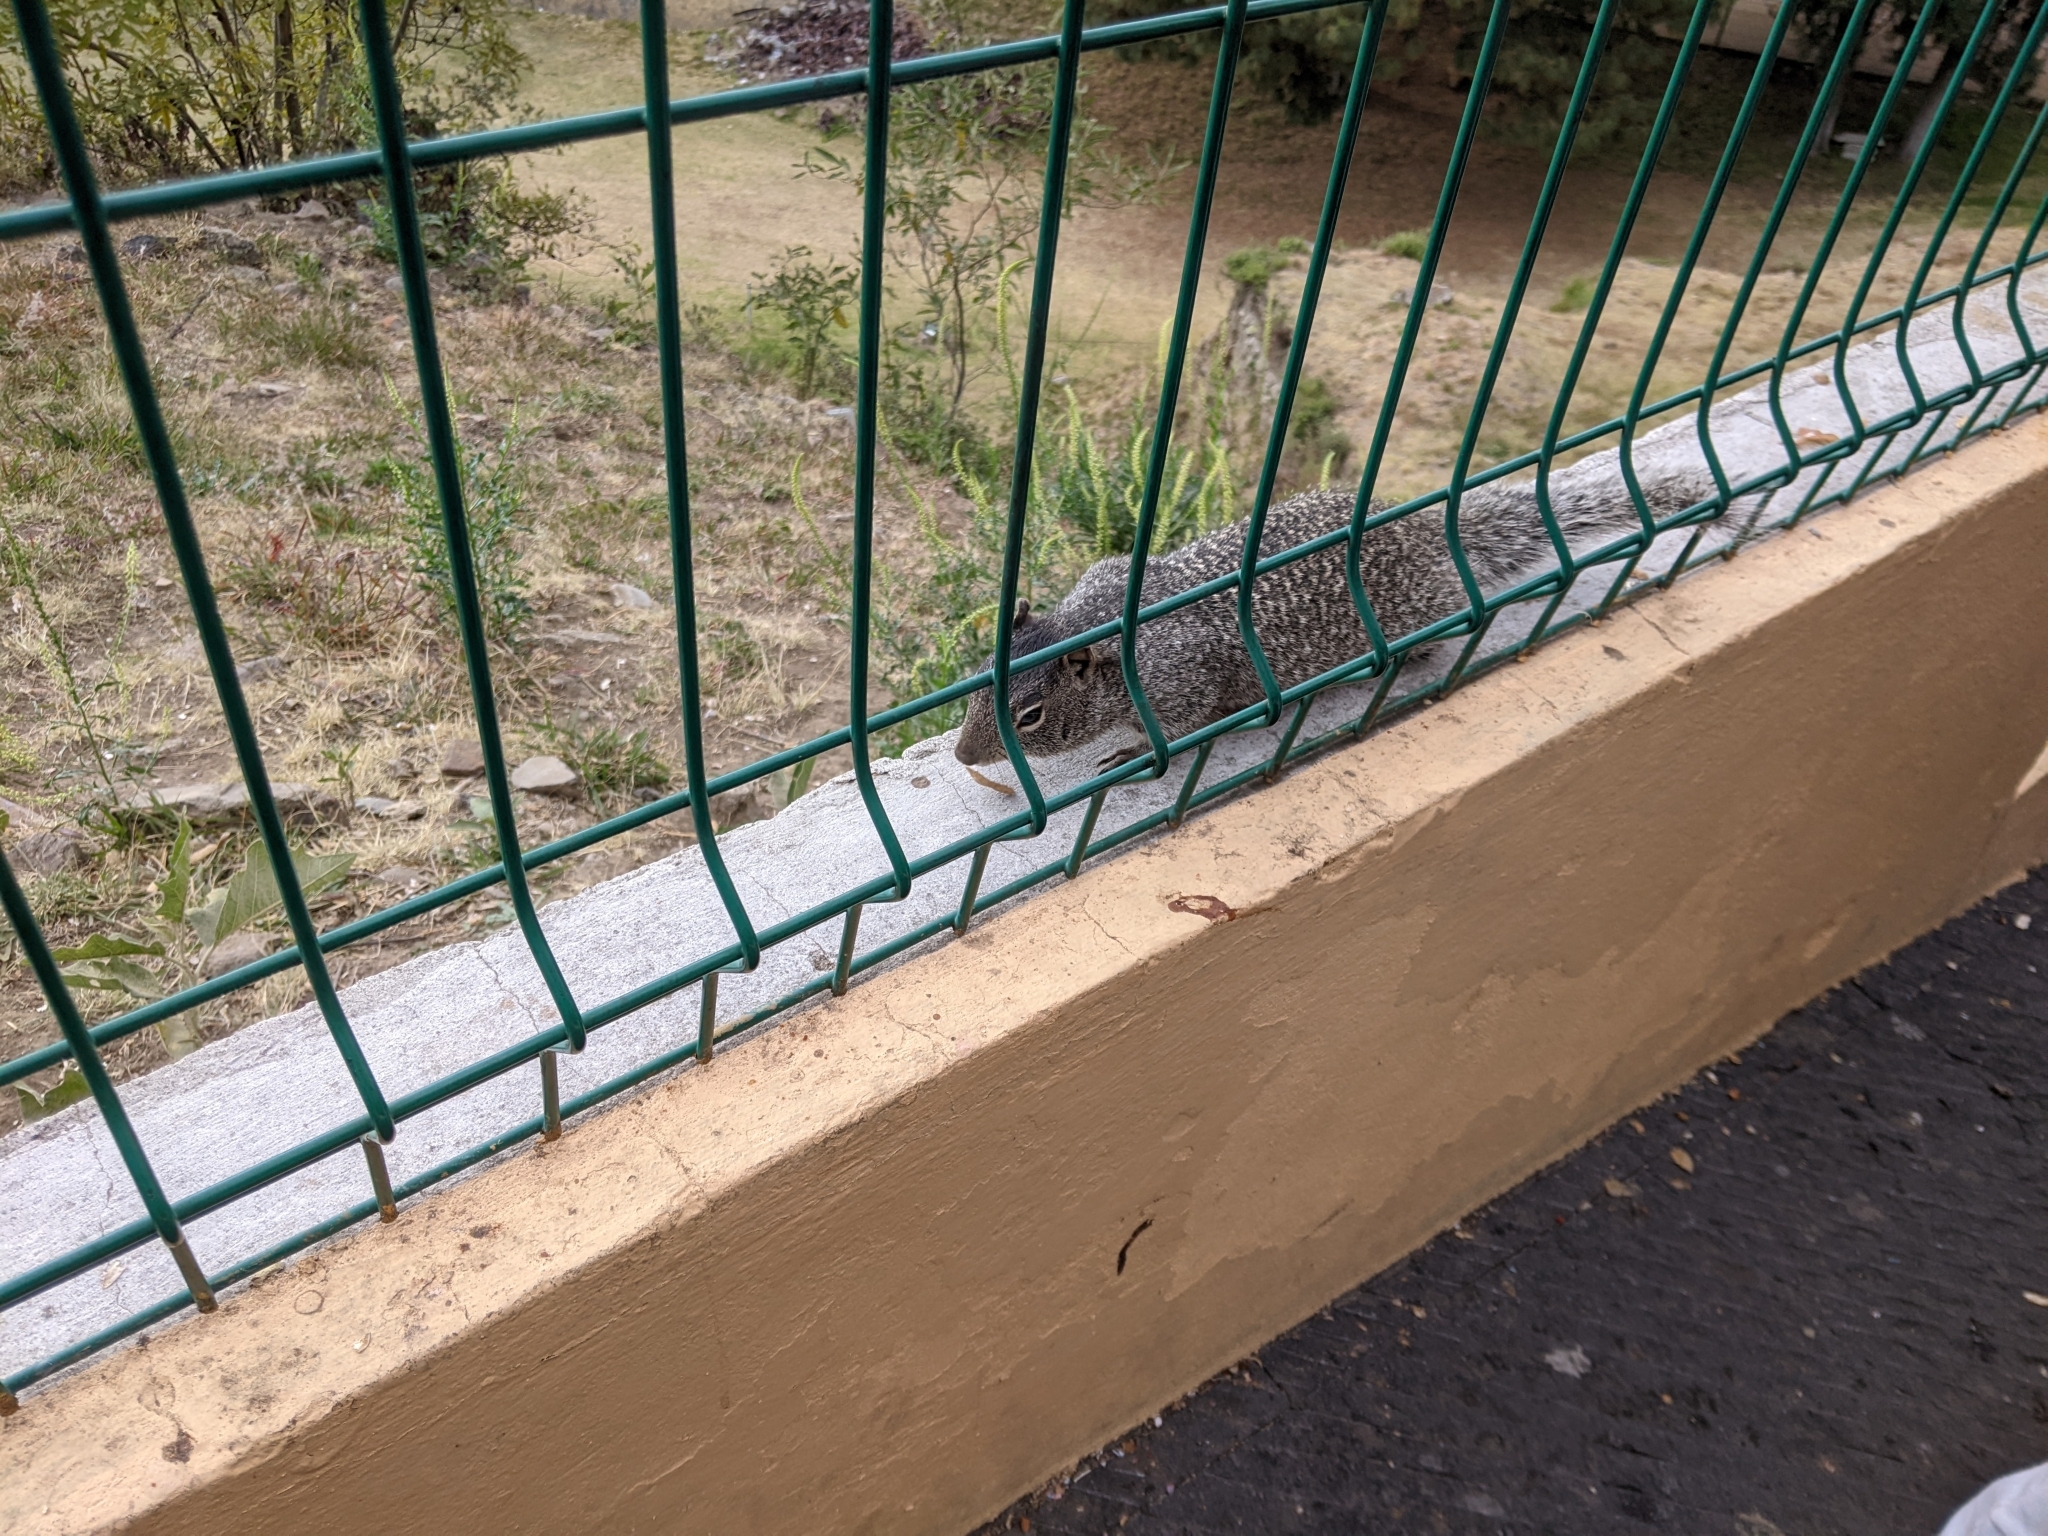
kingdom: Animalia
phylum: Chordata
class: Mammalia
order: Rodentia
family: Sciuridae
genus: Otospermophilus
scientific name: Otospermophilus variegatus
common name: Rock squirrel
